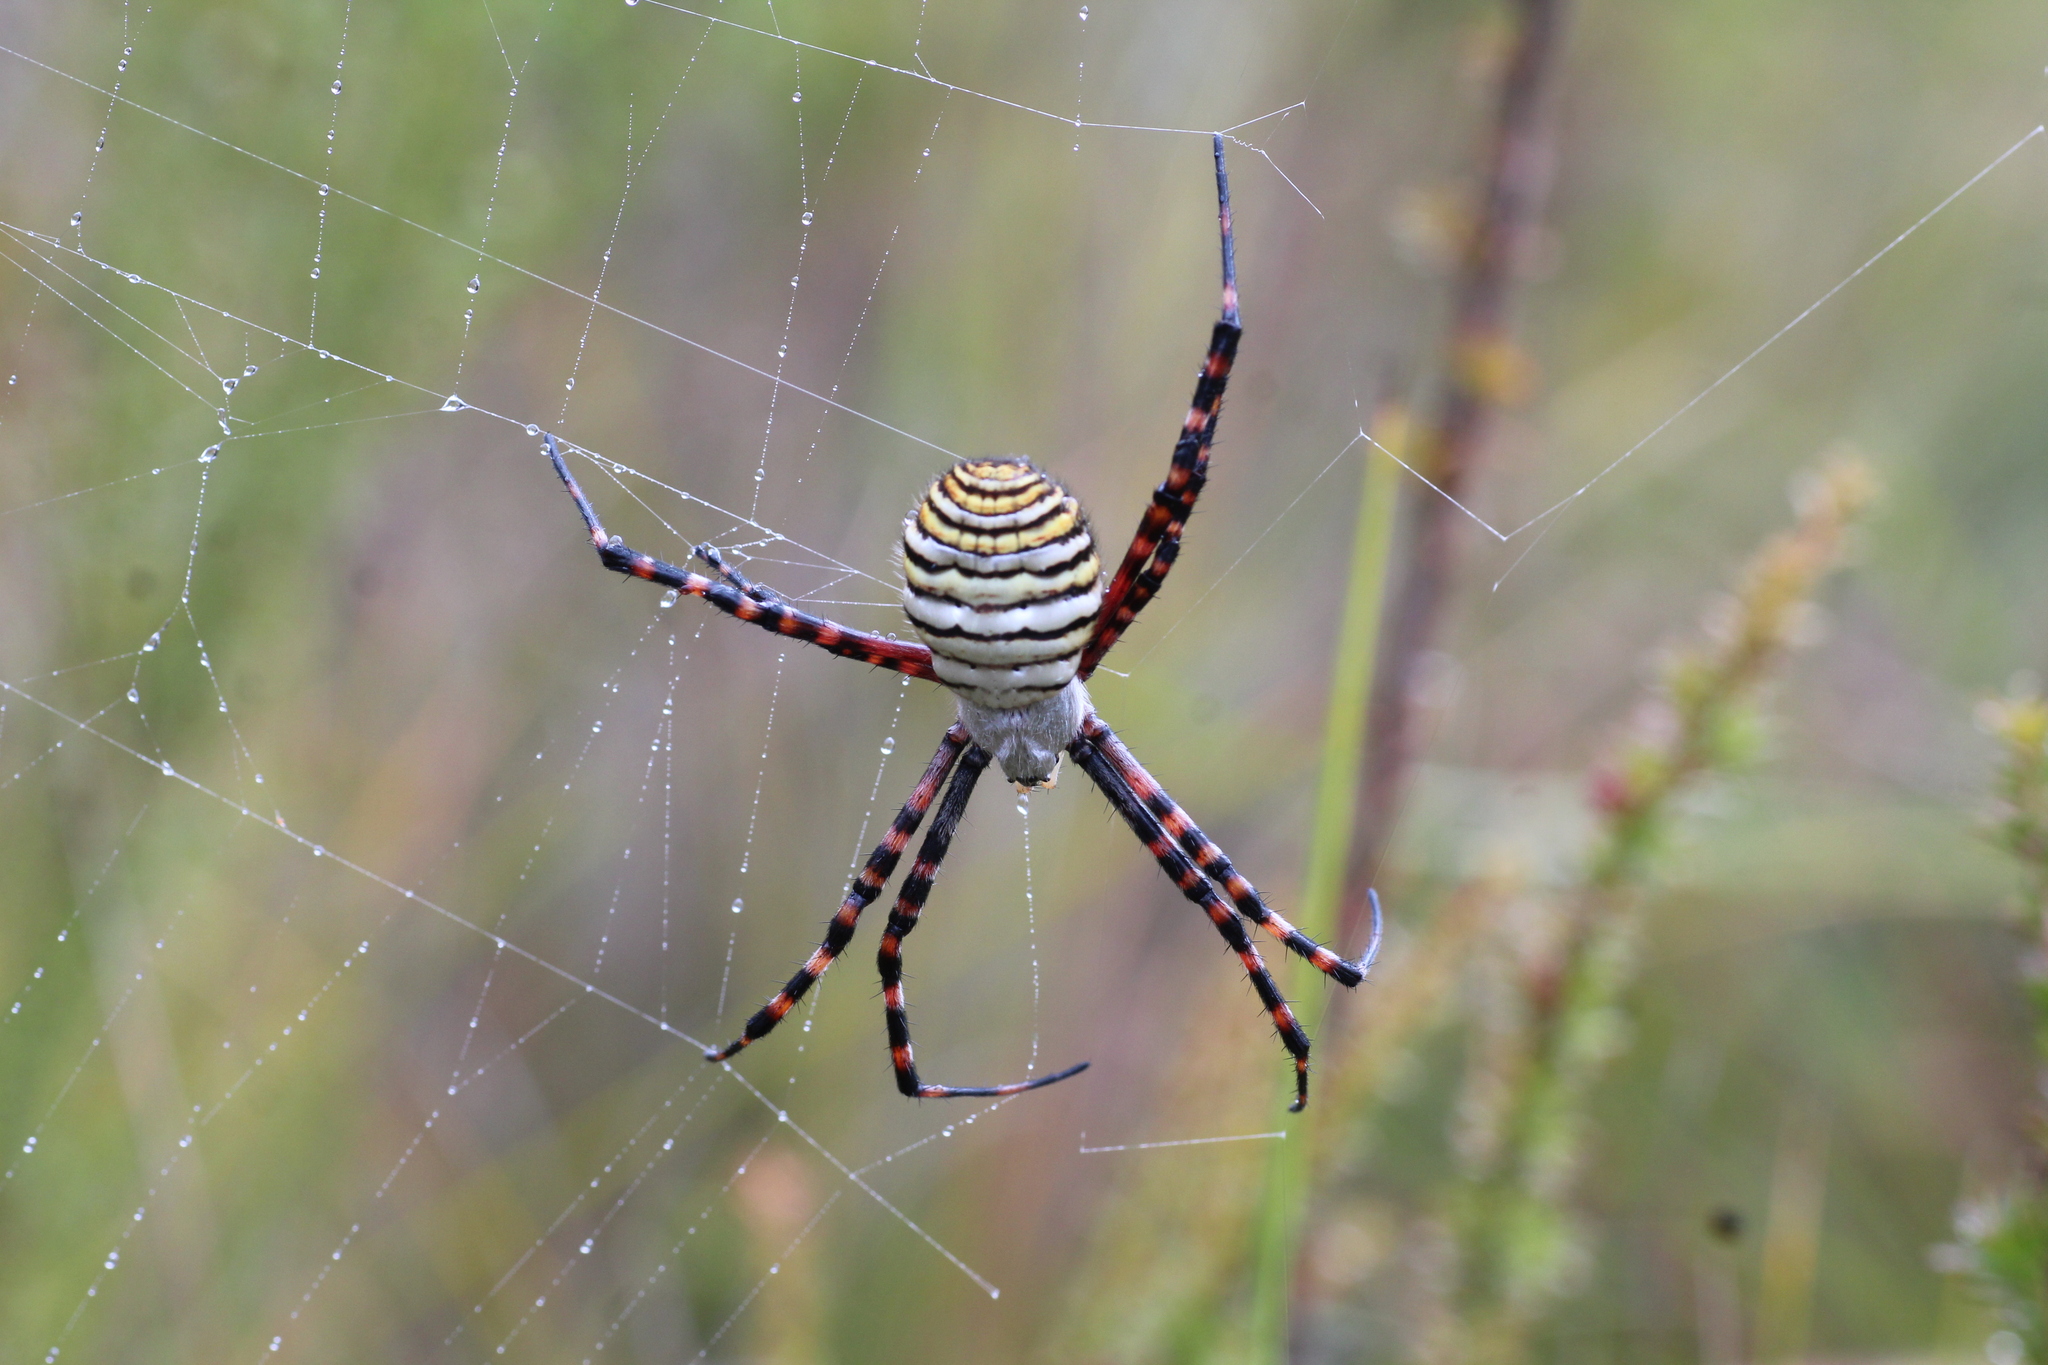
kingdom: Animalia
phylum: Arthropoda
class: Arachnida
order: Araneae
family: Araneidae
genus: Argiope
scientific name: Argiope trifasciata
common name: Banded garden spider
